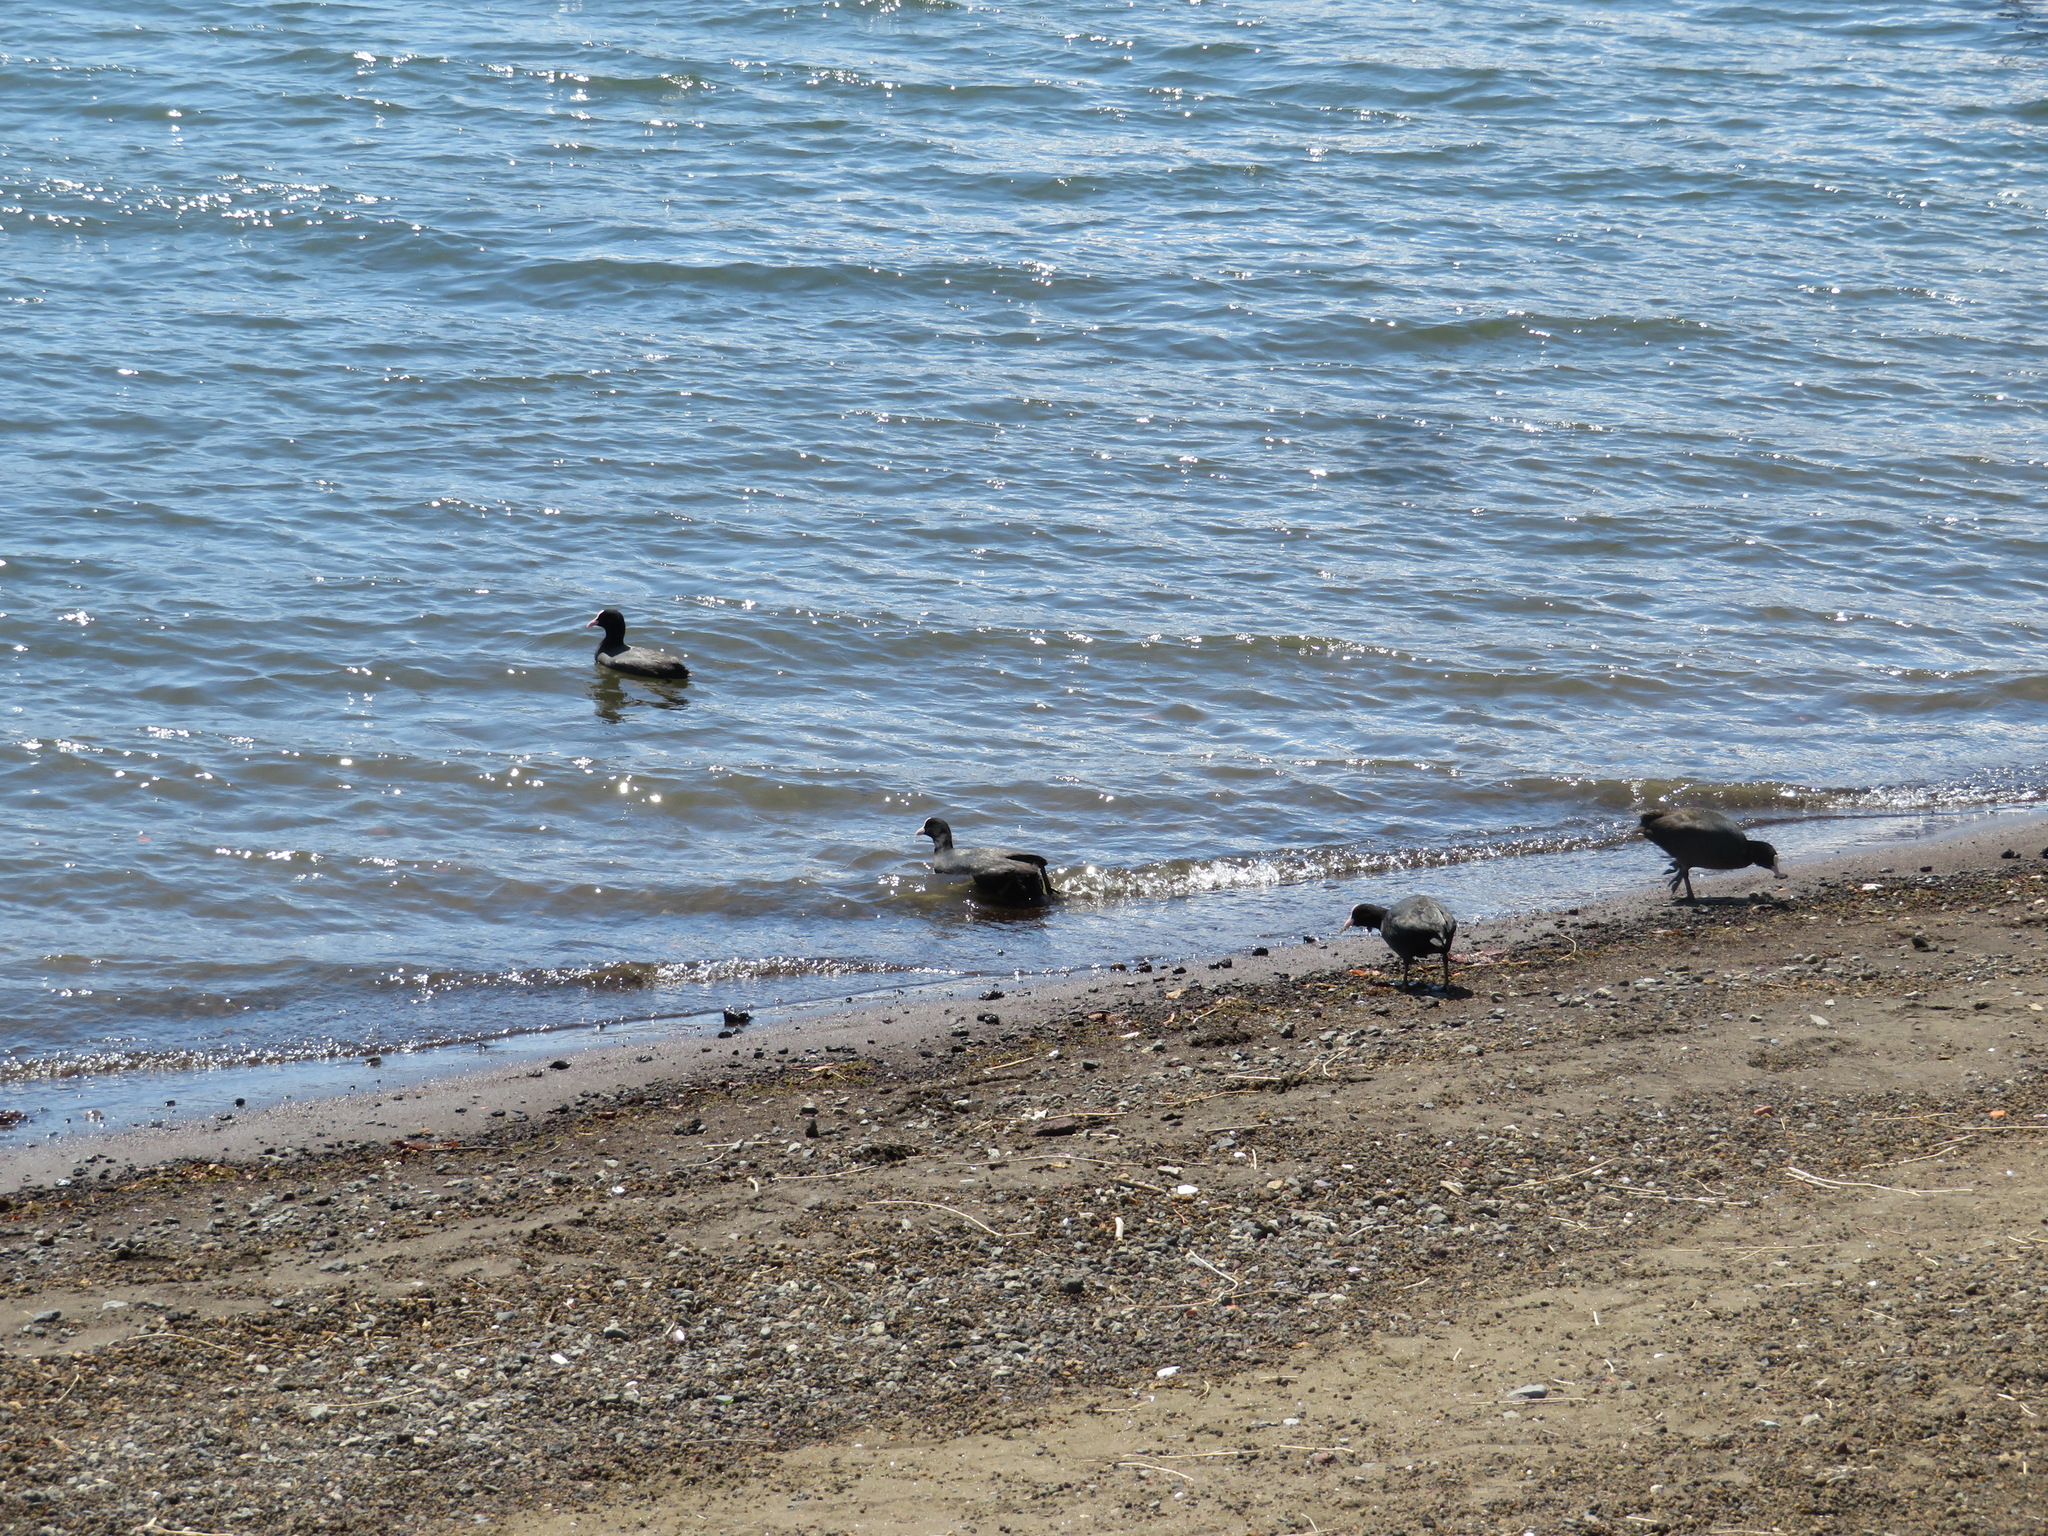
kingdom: Animalia
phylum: Chordata
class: Aves
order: Gruiformes
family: Rallidae
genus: Fulica
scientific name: Fulica atra
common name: Eurasian coot
